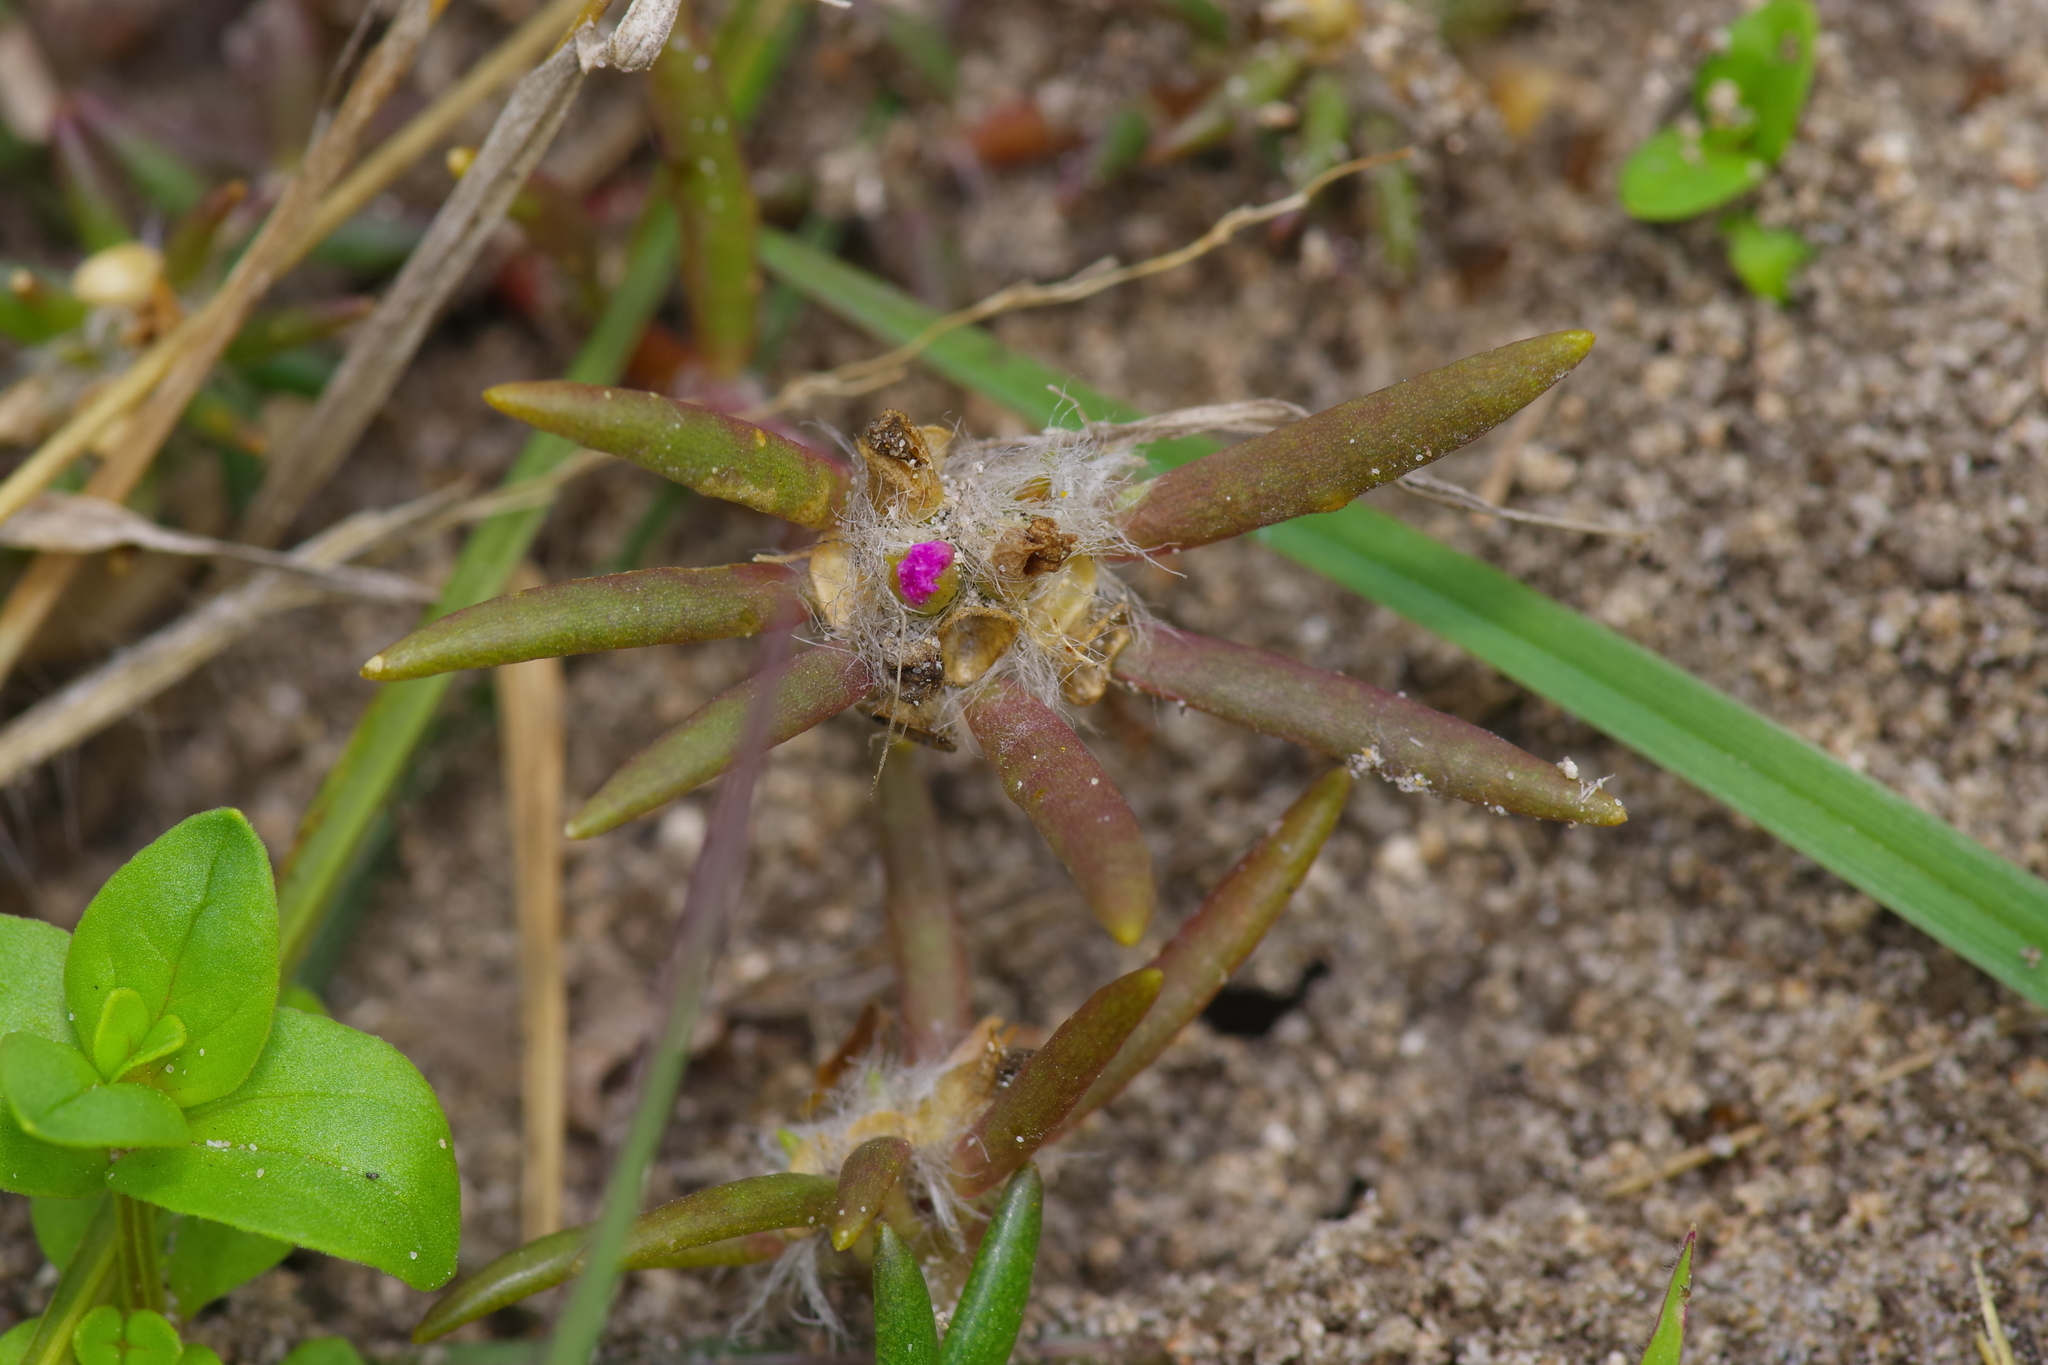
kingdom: Plantae
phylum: Tracheophyta
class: Magnoliopsida
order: Caryophyllales
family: Portulacaceae
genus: Portulaca
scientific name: Portulaca pilosa
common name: Kiss me quick
